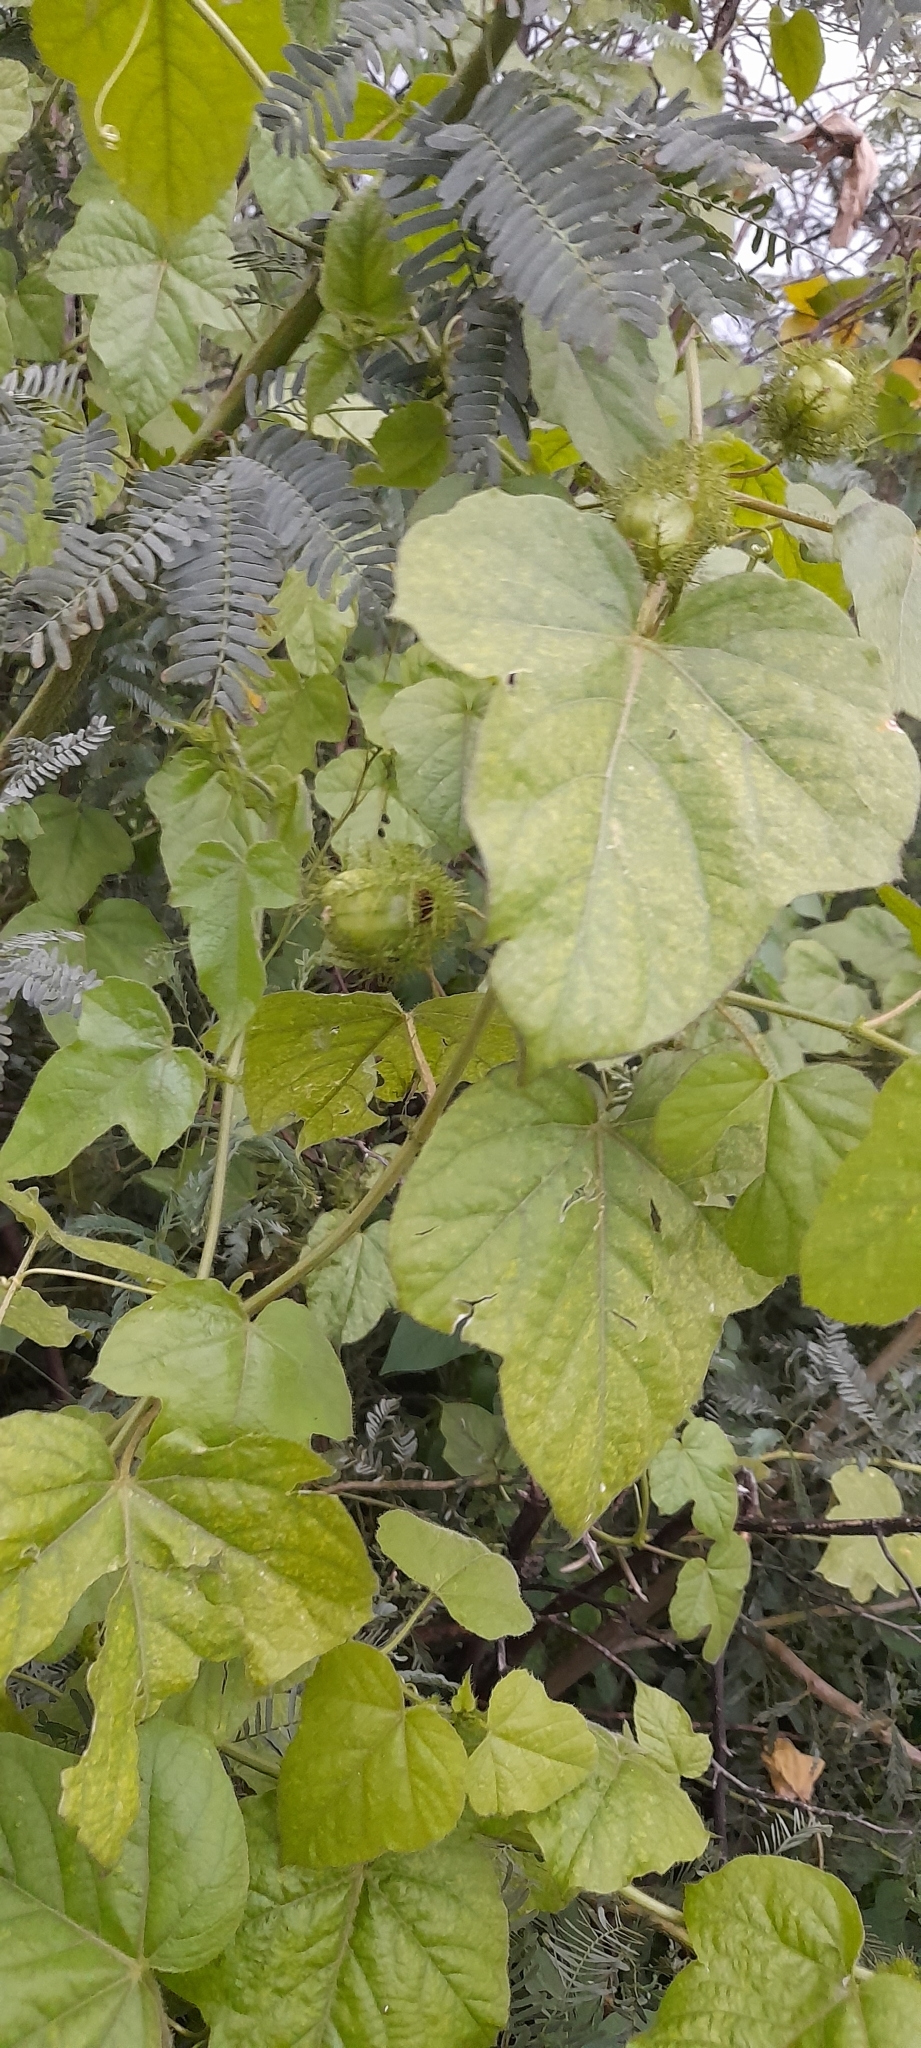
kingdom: Plantae
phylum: Tracheophyta
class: Magnoliopsida
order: Malpighiales
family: Passifloraceae
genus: Passiflora
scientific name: Passiflora foetida
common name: Fetid passionflower
